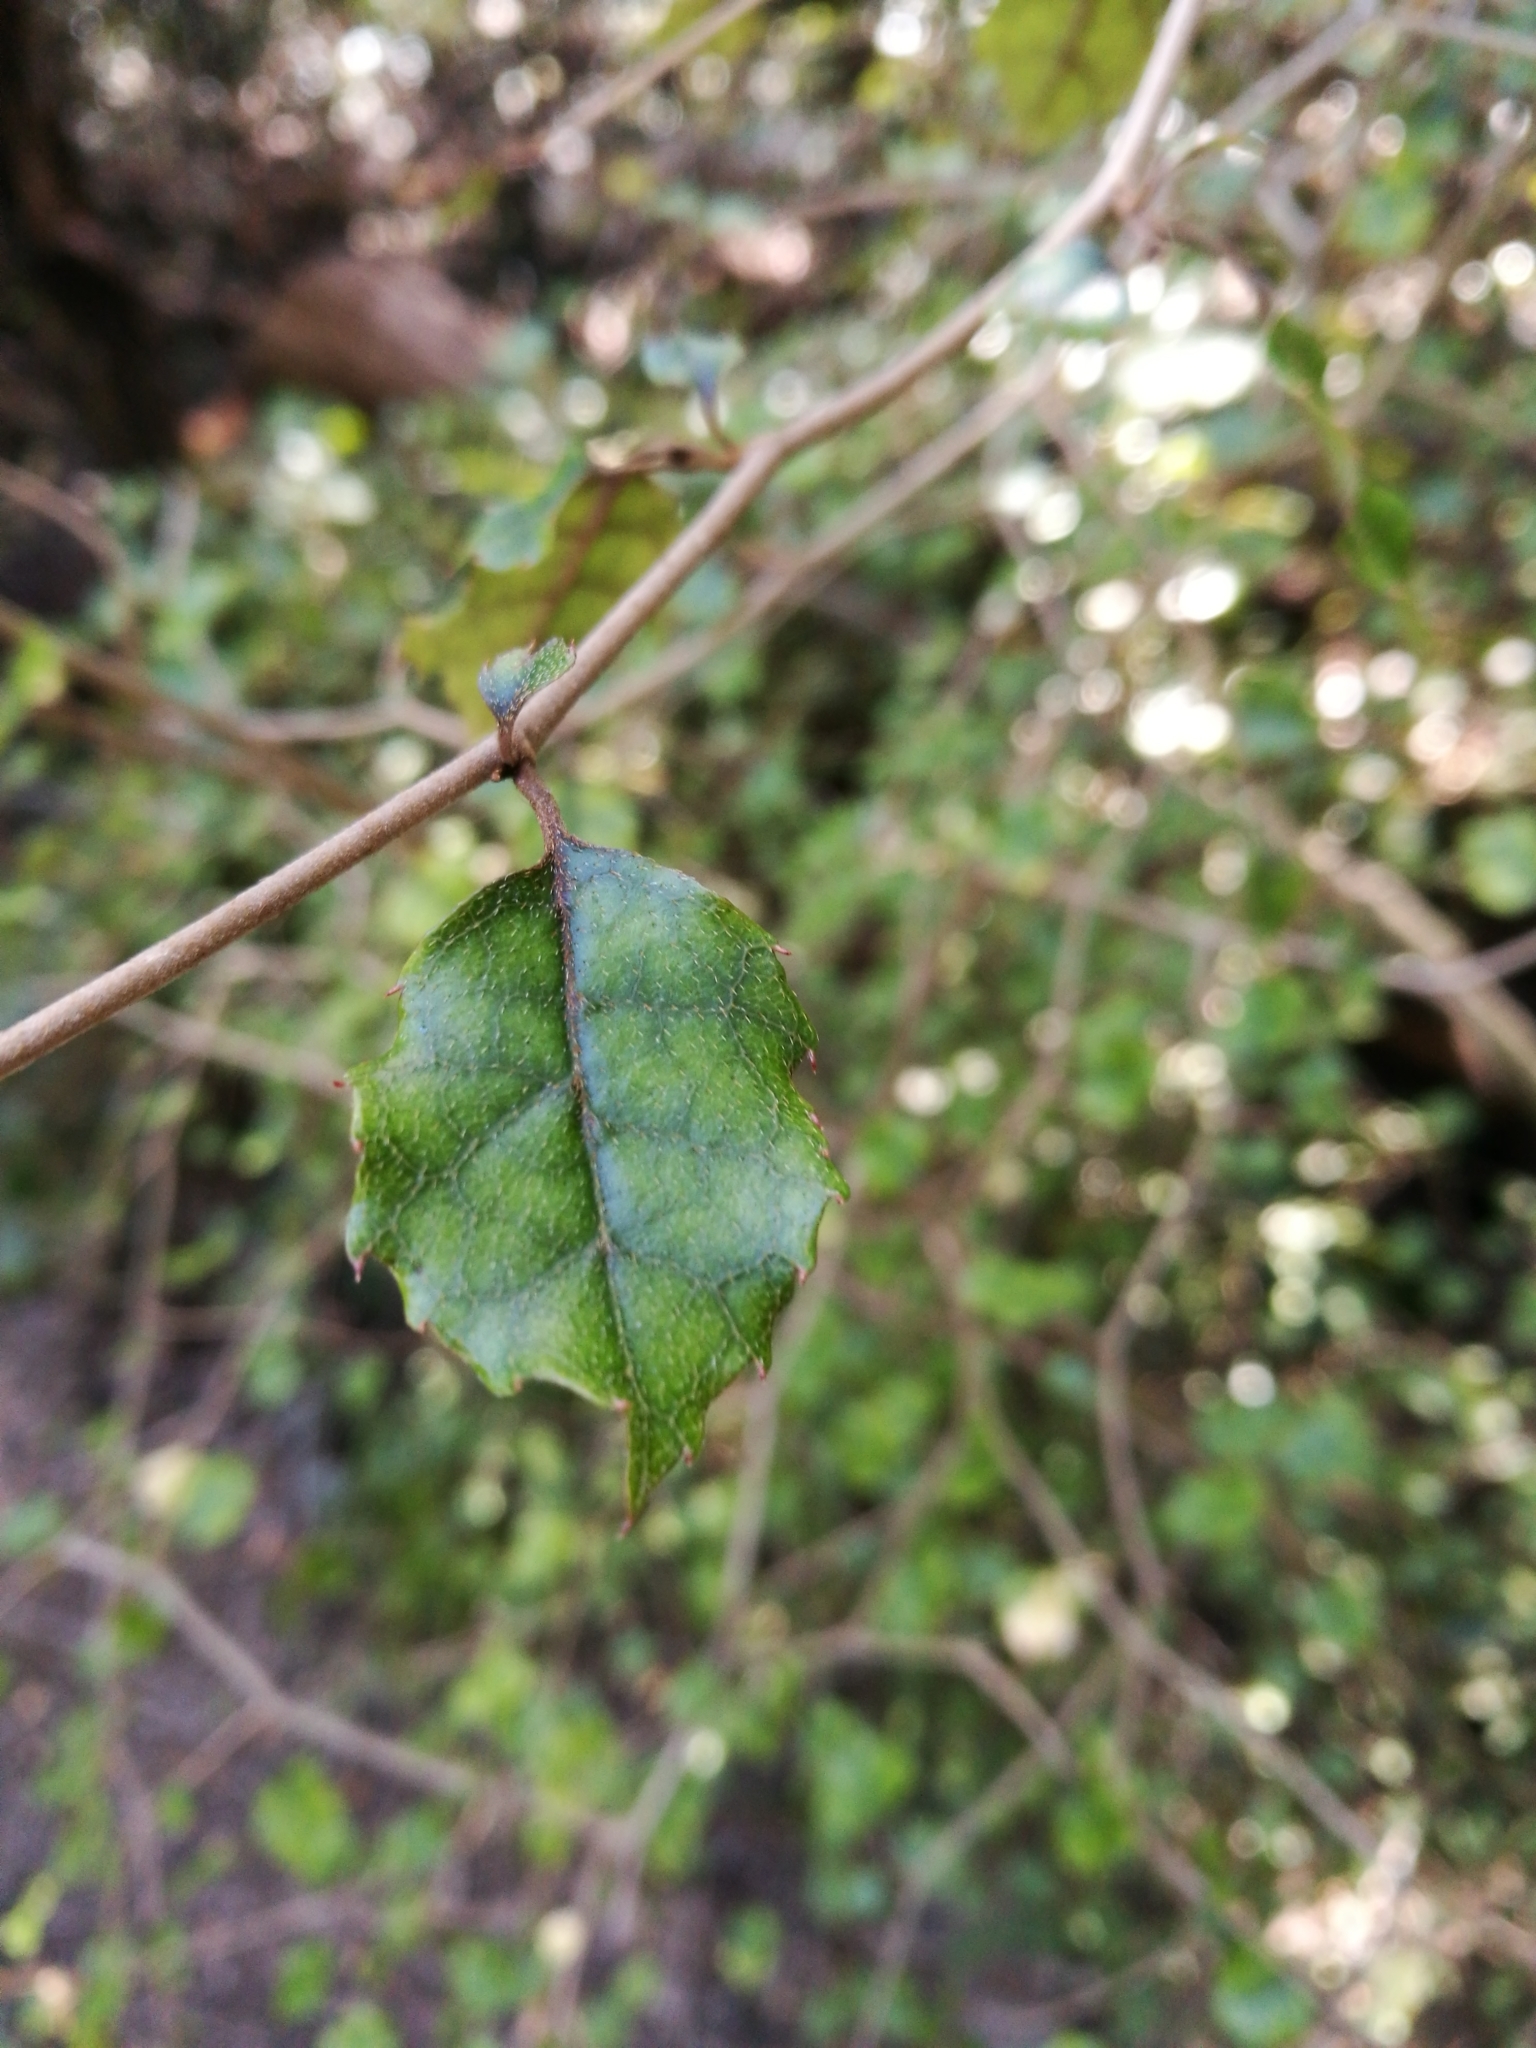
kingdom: Plantae
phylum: Tracheophyta
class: Magnoliopsida
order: Asterales
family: Rousseaceae
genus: Carpodetus
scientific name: Carpodetus serratus
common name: White mapau
